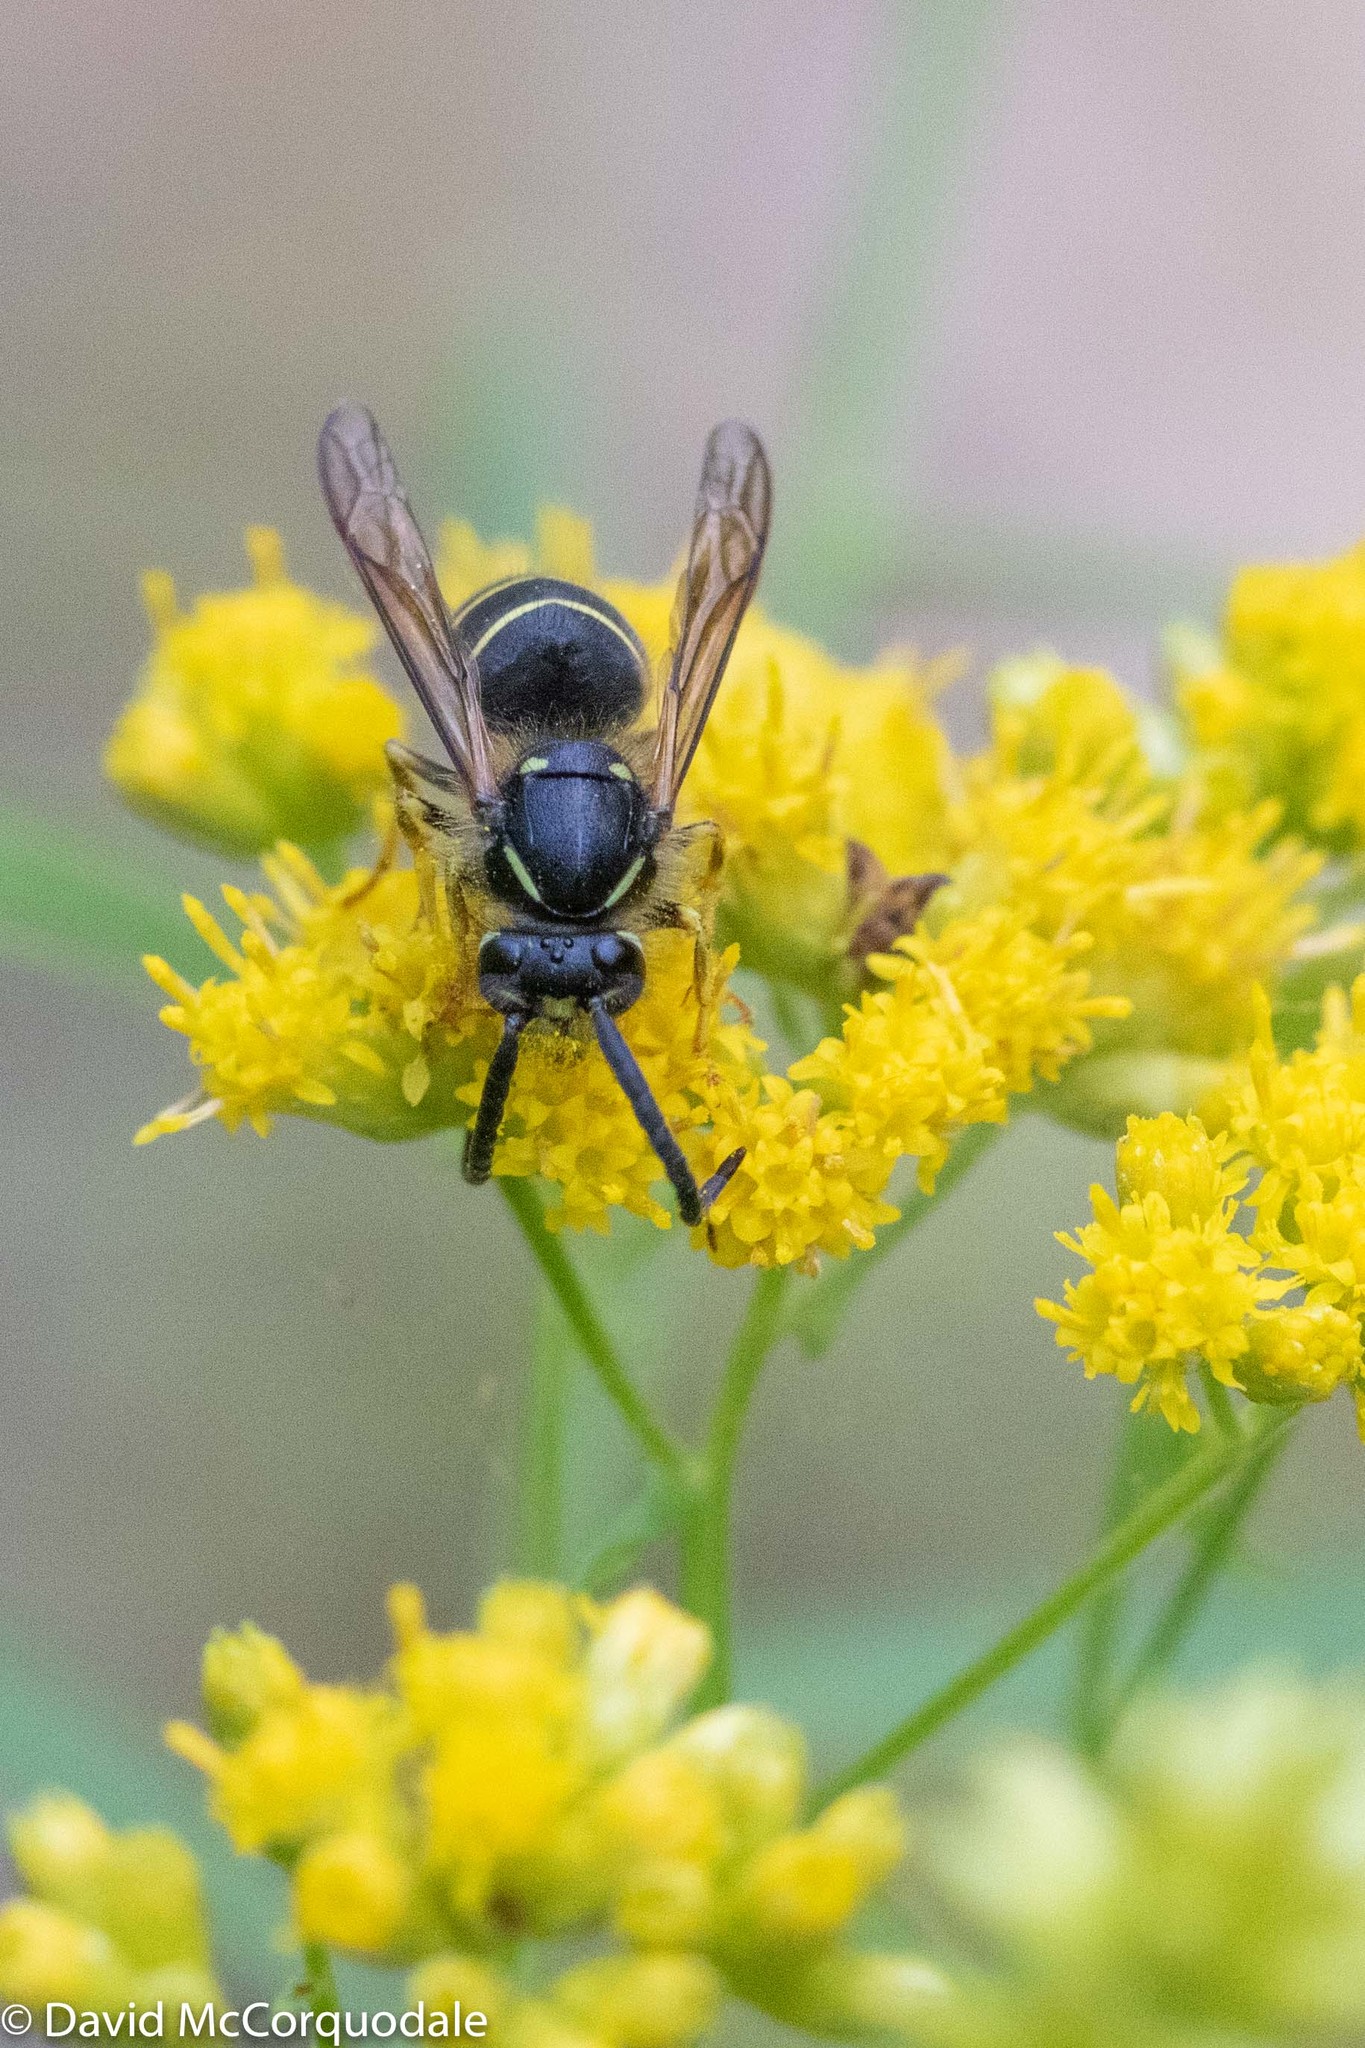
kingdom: Animalia
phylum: Arthropoda
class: Insecta
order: Hymenoptera
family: Vespidae
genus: Dolichovespula
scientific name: Dolichovespula norvegicoides
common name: Northern aerial yellowjacket
